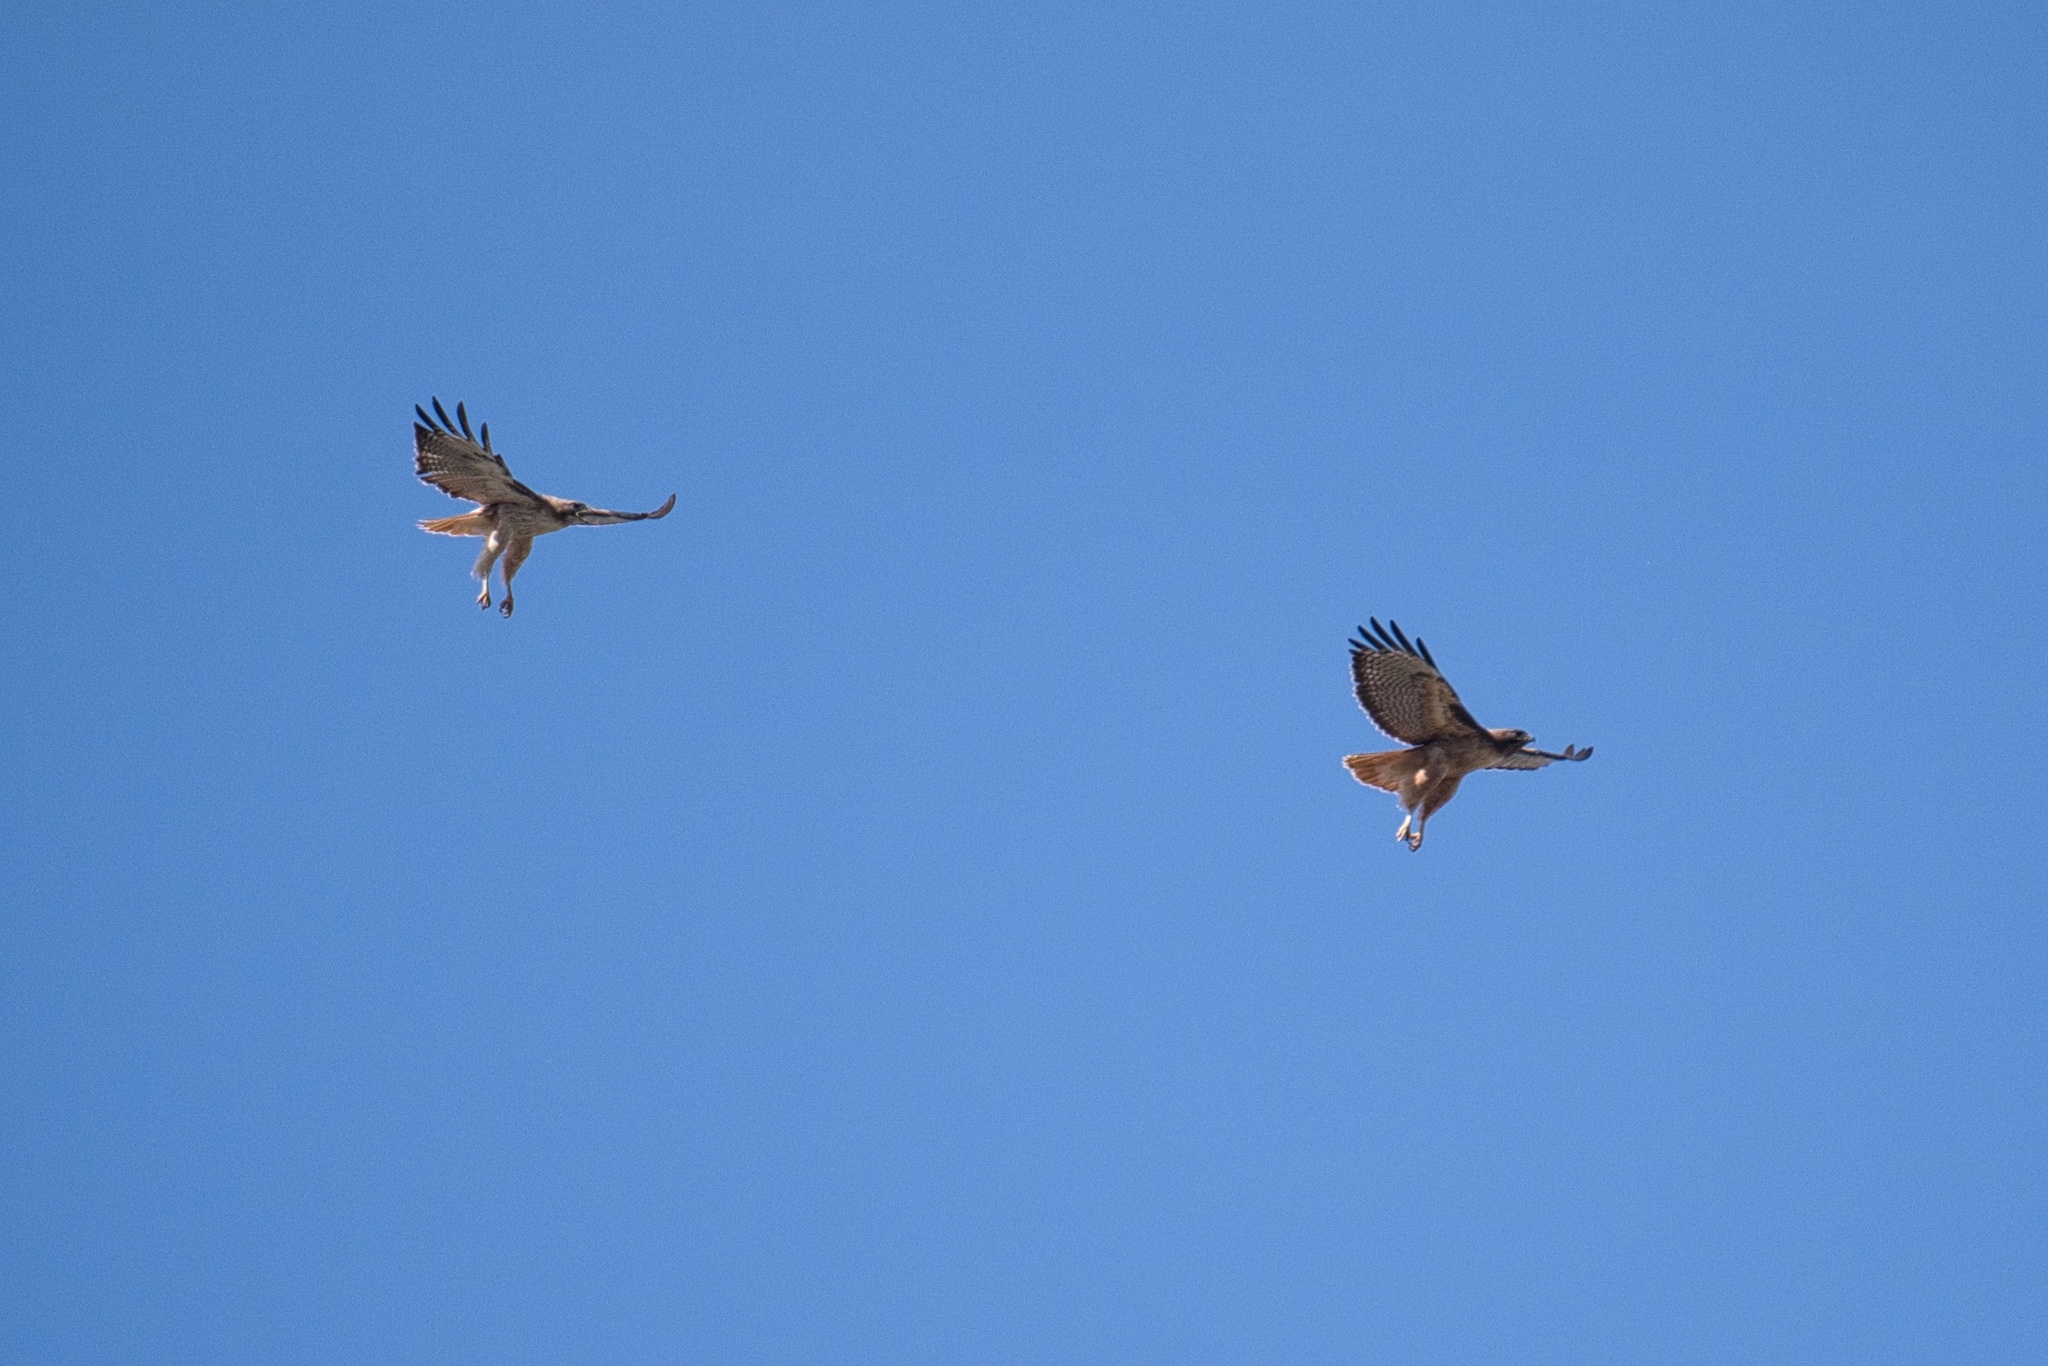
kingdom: Animalia
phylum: Chordata
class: Aves
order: Accipitriformes
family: Accipitridae
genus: Buteo
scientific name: Buteo jamaicensis
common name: Red-tailed hawk
